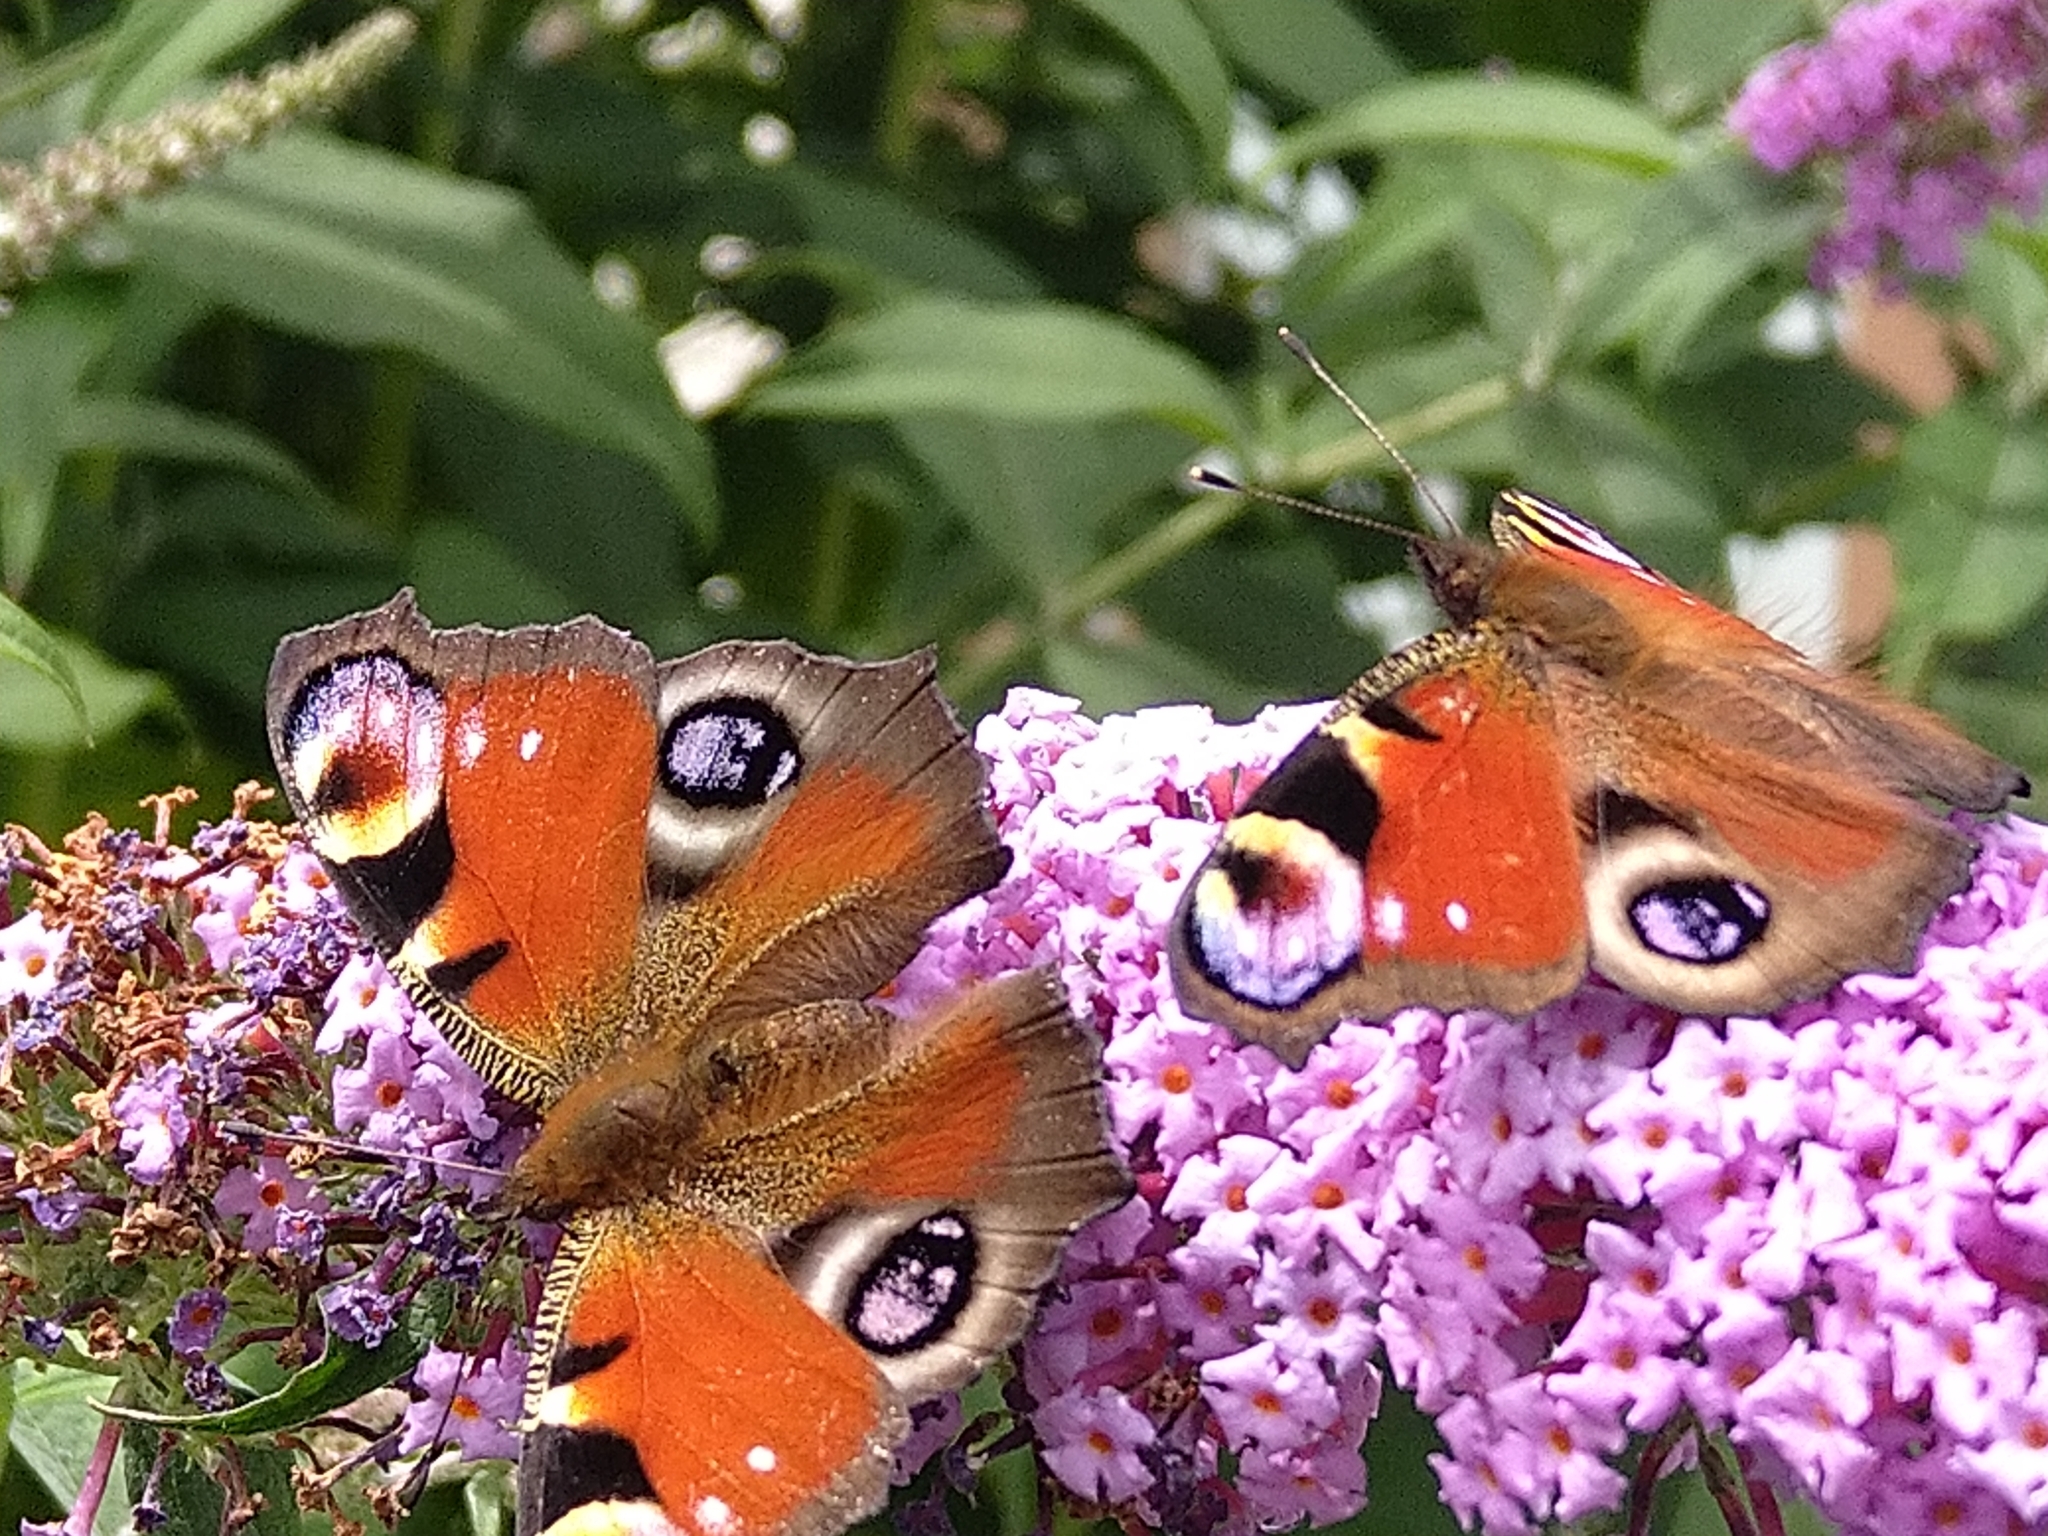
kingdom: Animalia
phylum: Arthropoda
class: Insecta
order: Lepidoptera
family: Nymphalidae
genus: Aglais
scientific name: Aglais io
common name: Peacock
